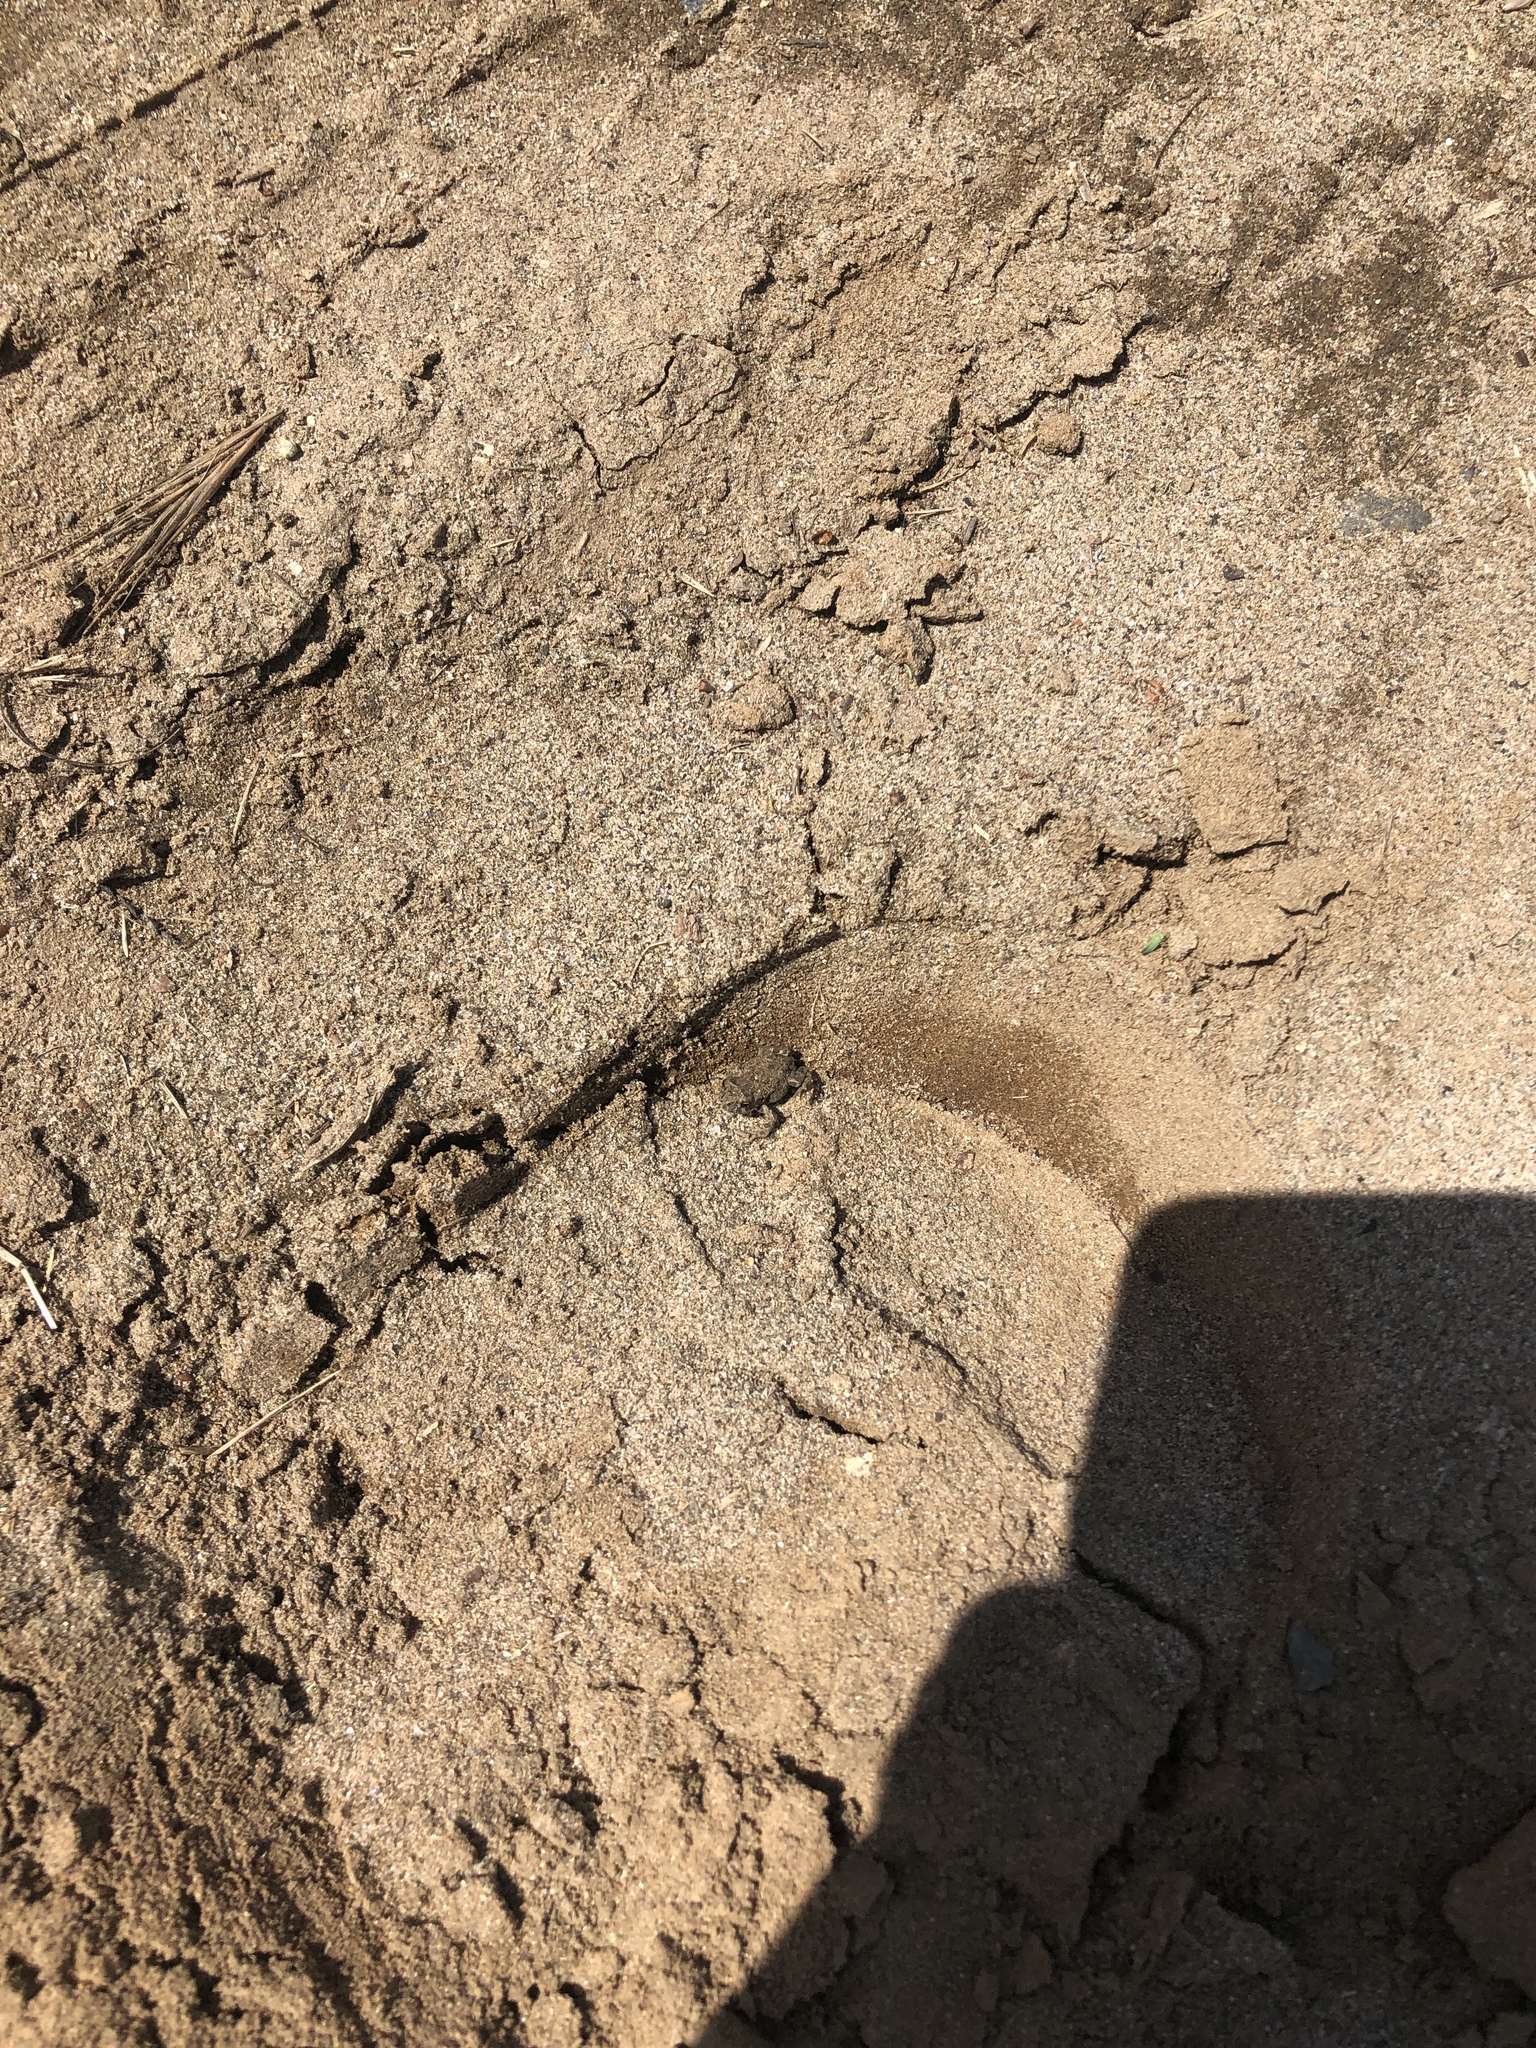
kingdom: Animalia
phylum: Chordata
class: Amphibia
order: Anura
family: Bufonidae
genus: Anaxyrus
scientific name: Anaxyrus boreas
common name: Western toad
